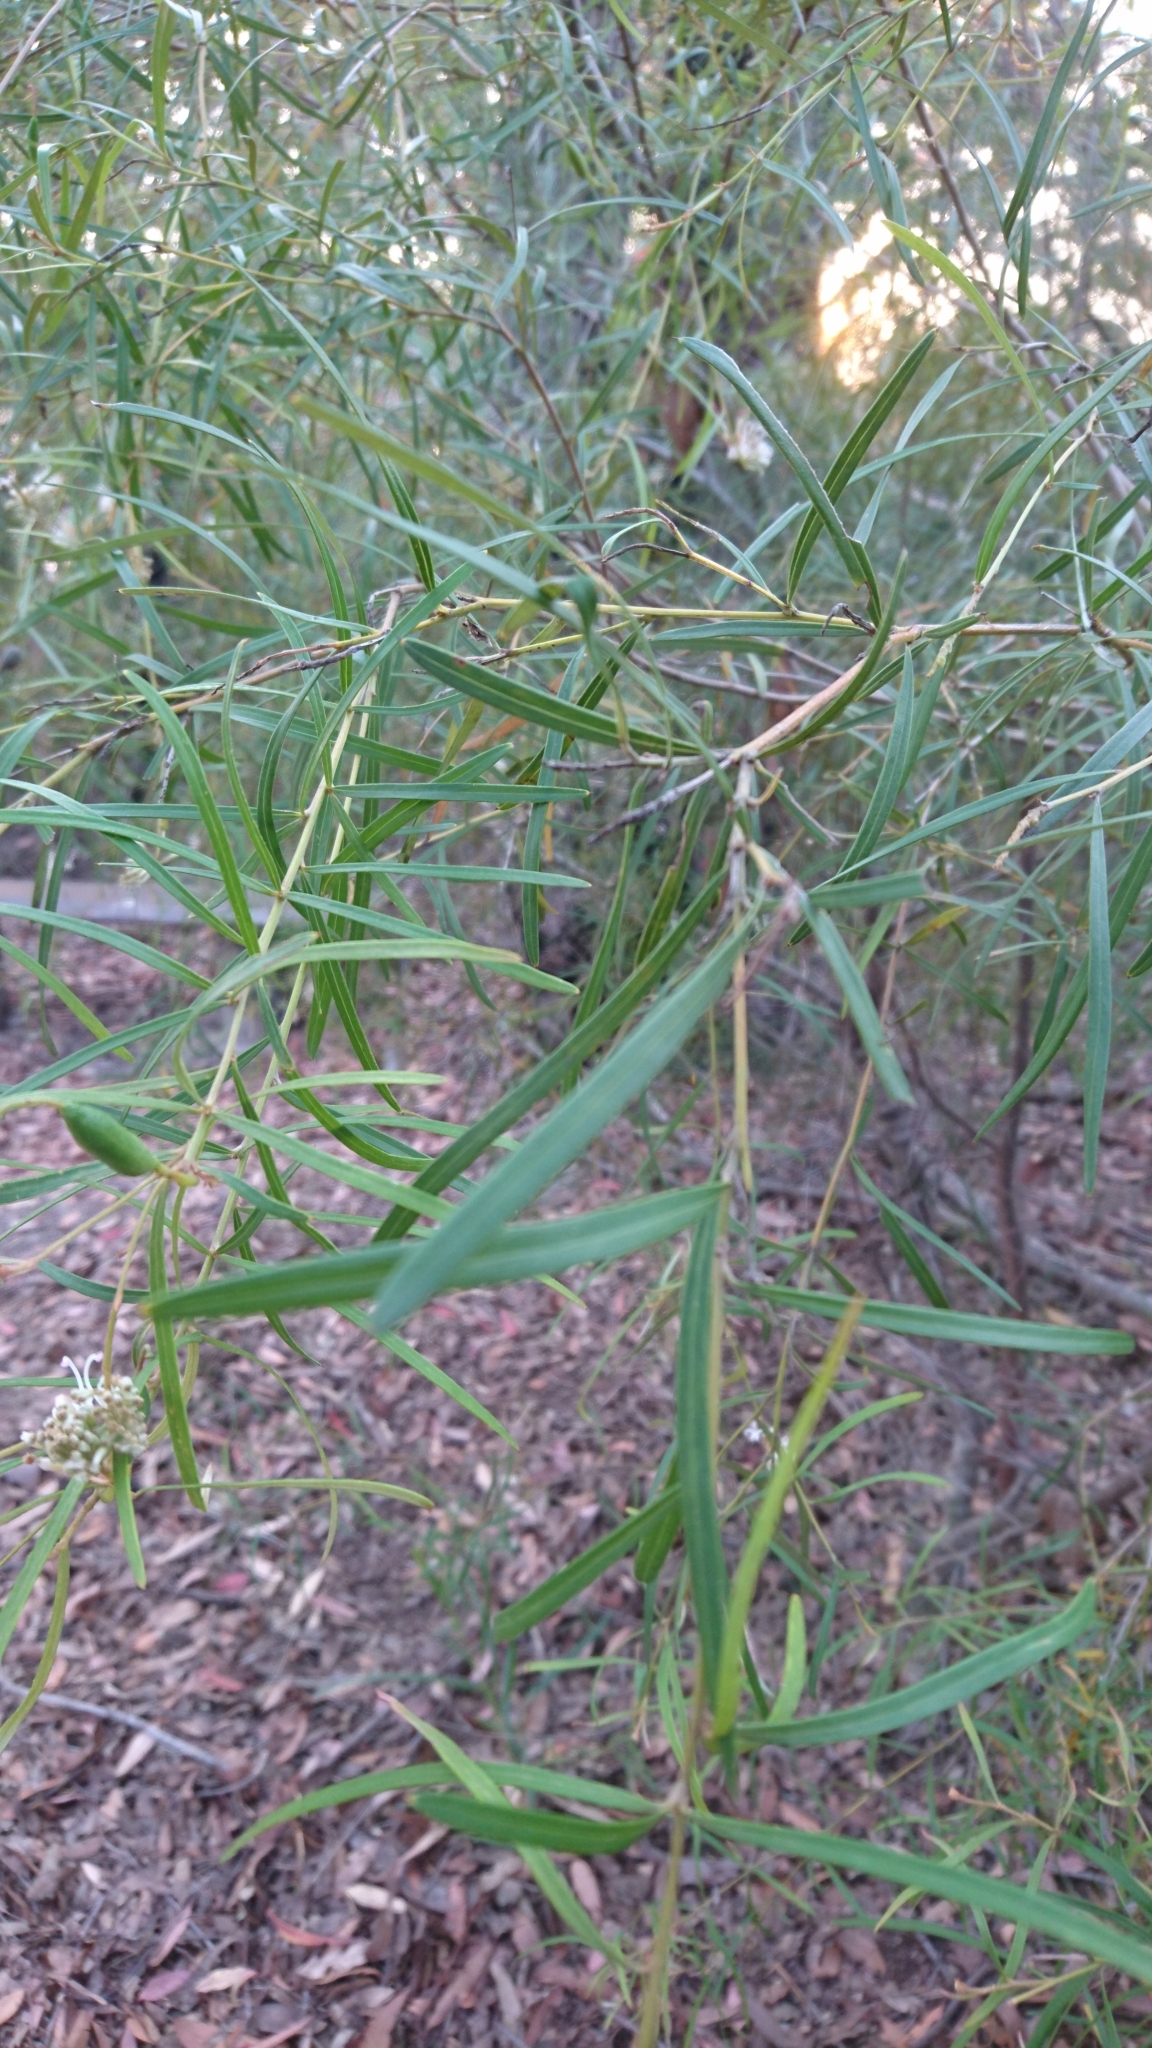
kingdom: Plantae
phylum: Tracheophyta
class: Magnoliopsida
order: Proteales
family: Proteaceae
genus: Grevillea
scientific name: Grevillea linearifolia
